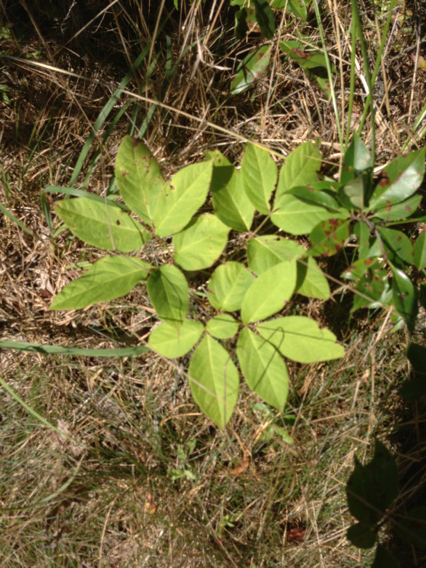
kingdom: Plantae
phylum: Tracheophyta
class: Magnoliopsida
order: Apiales
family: Araliaceae
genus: Aralia
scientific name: Aralia nudicaulis
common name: Wild sarsaparilla
